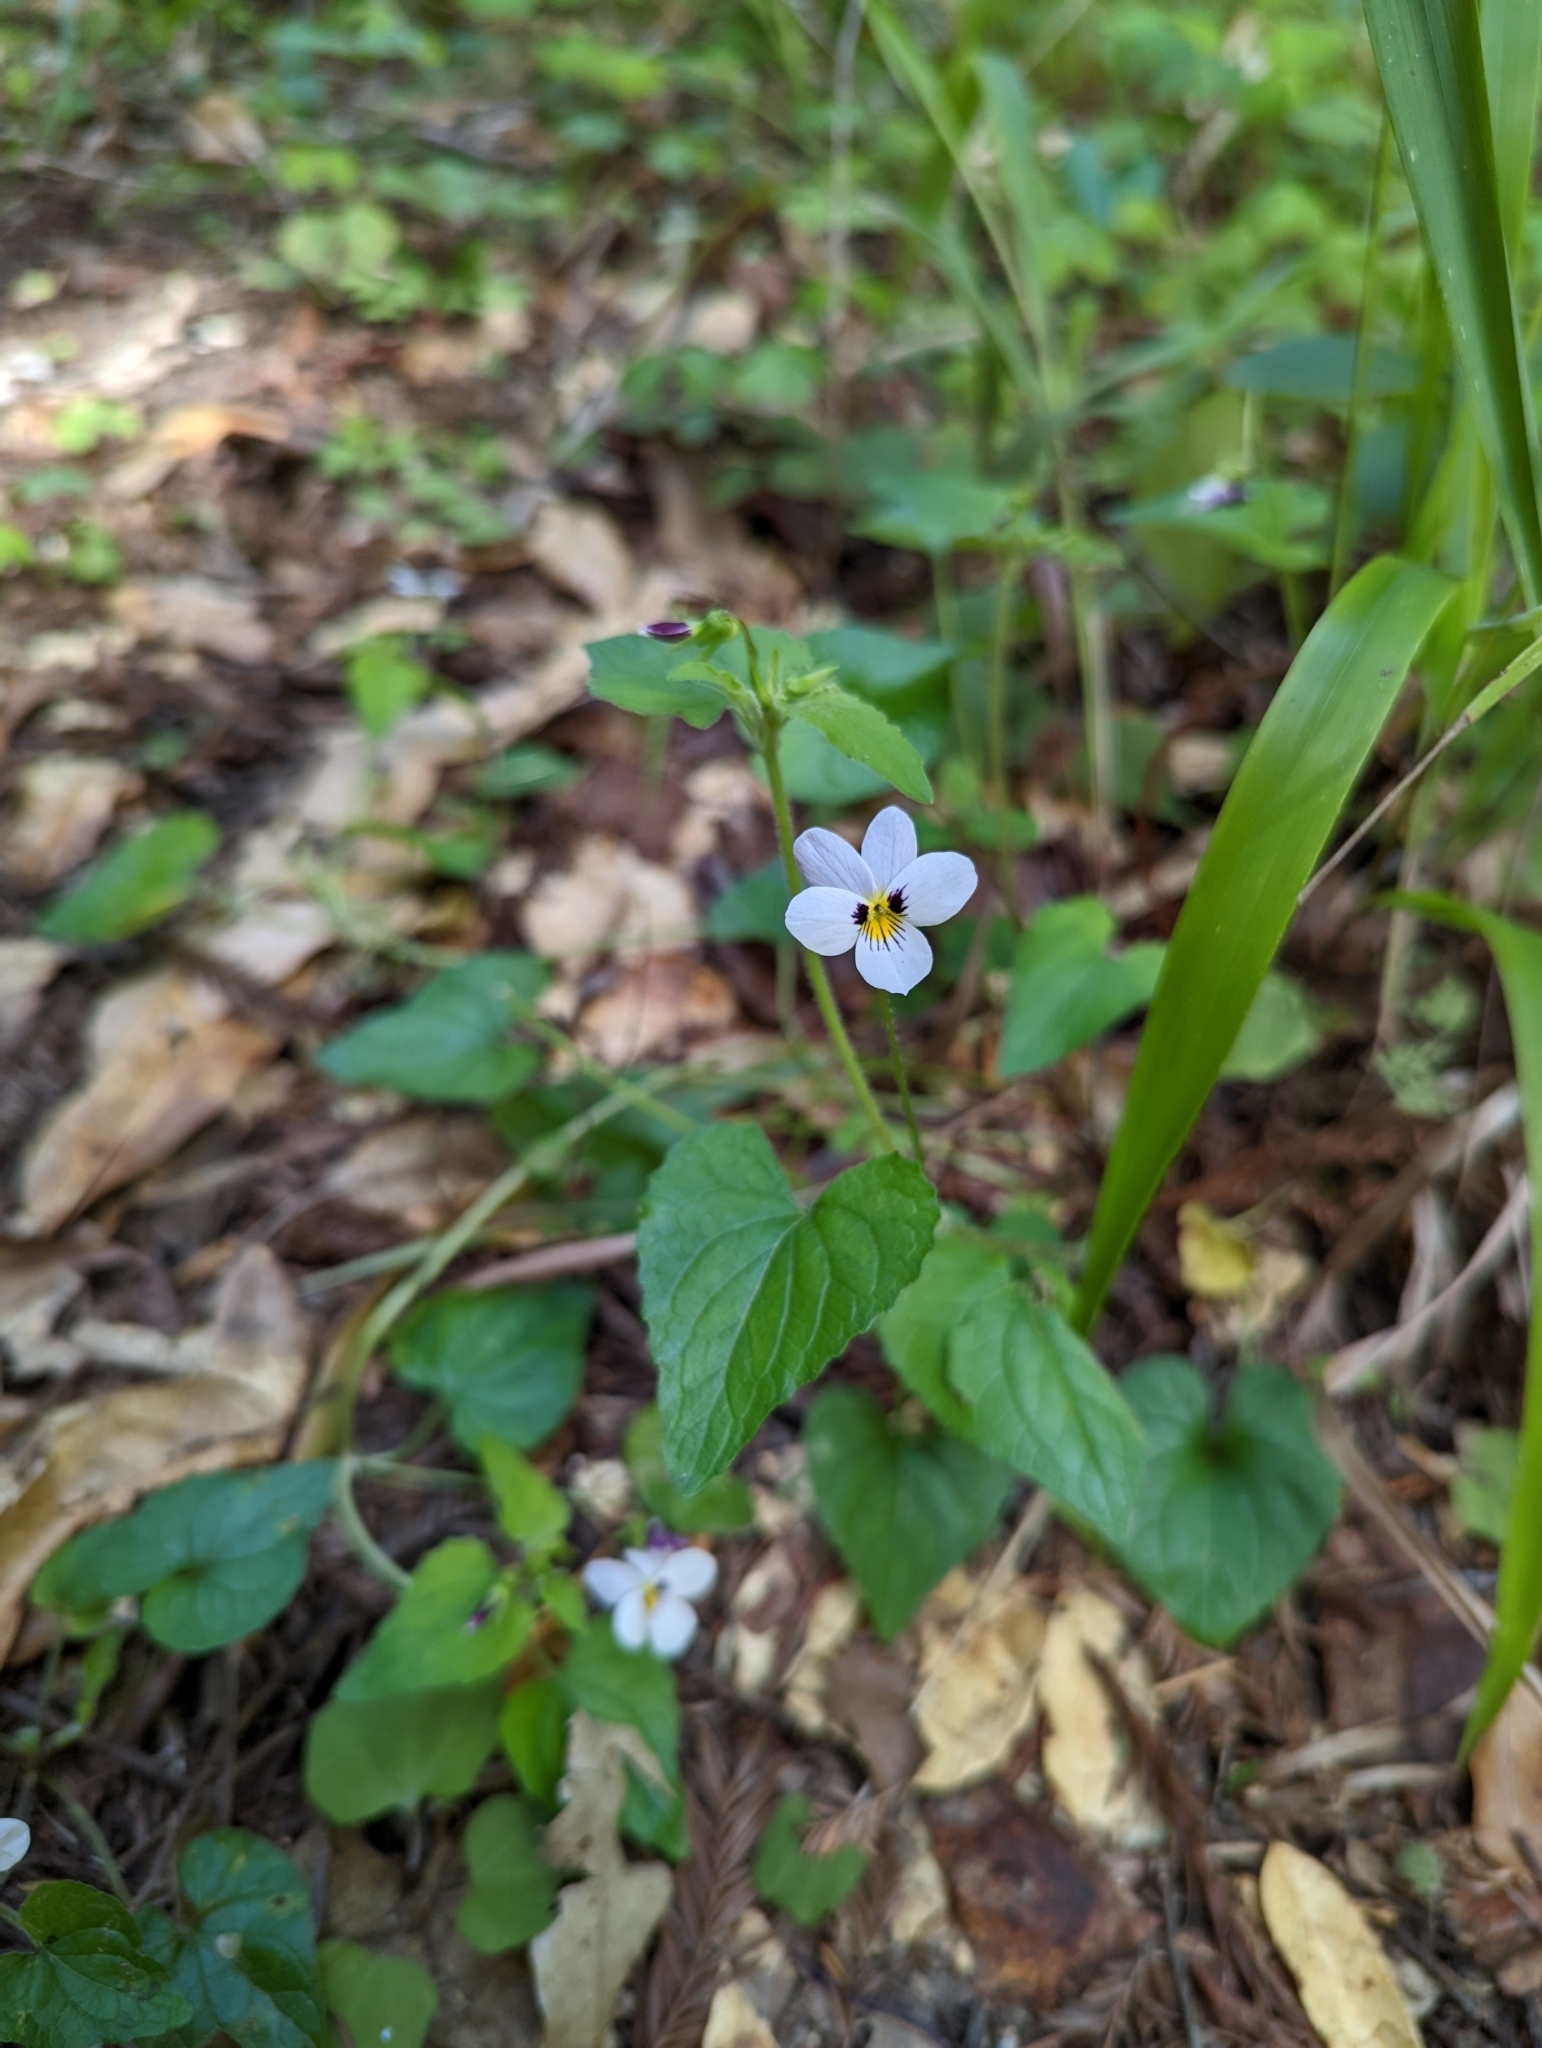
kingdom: Plantae
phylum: Tracheophyta
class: Magnoliopsida
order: Malpighiales
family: Violaceae
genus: Viola
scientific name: Viola ocellata
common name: Western heart's ease
